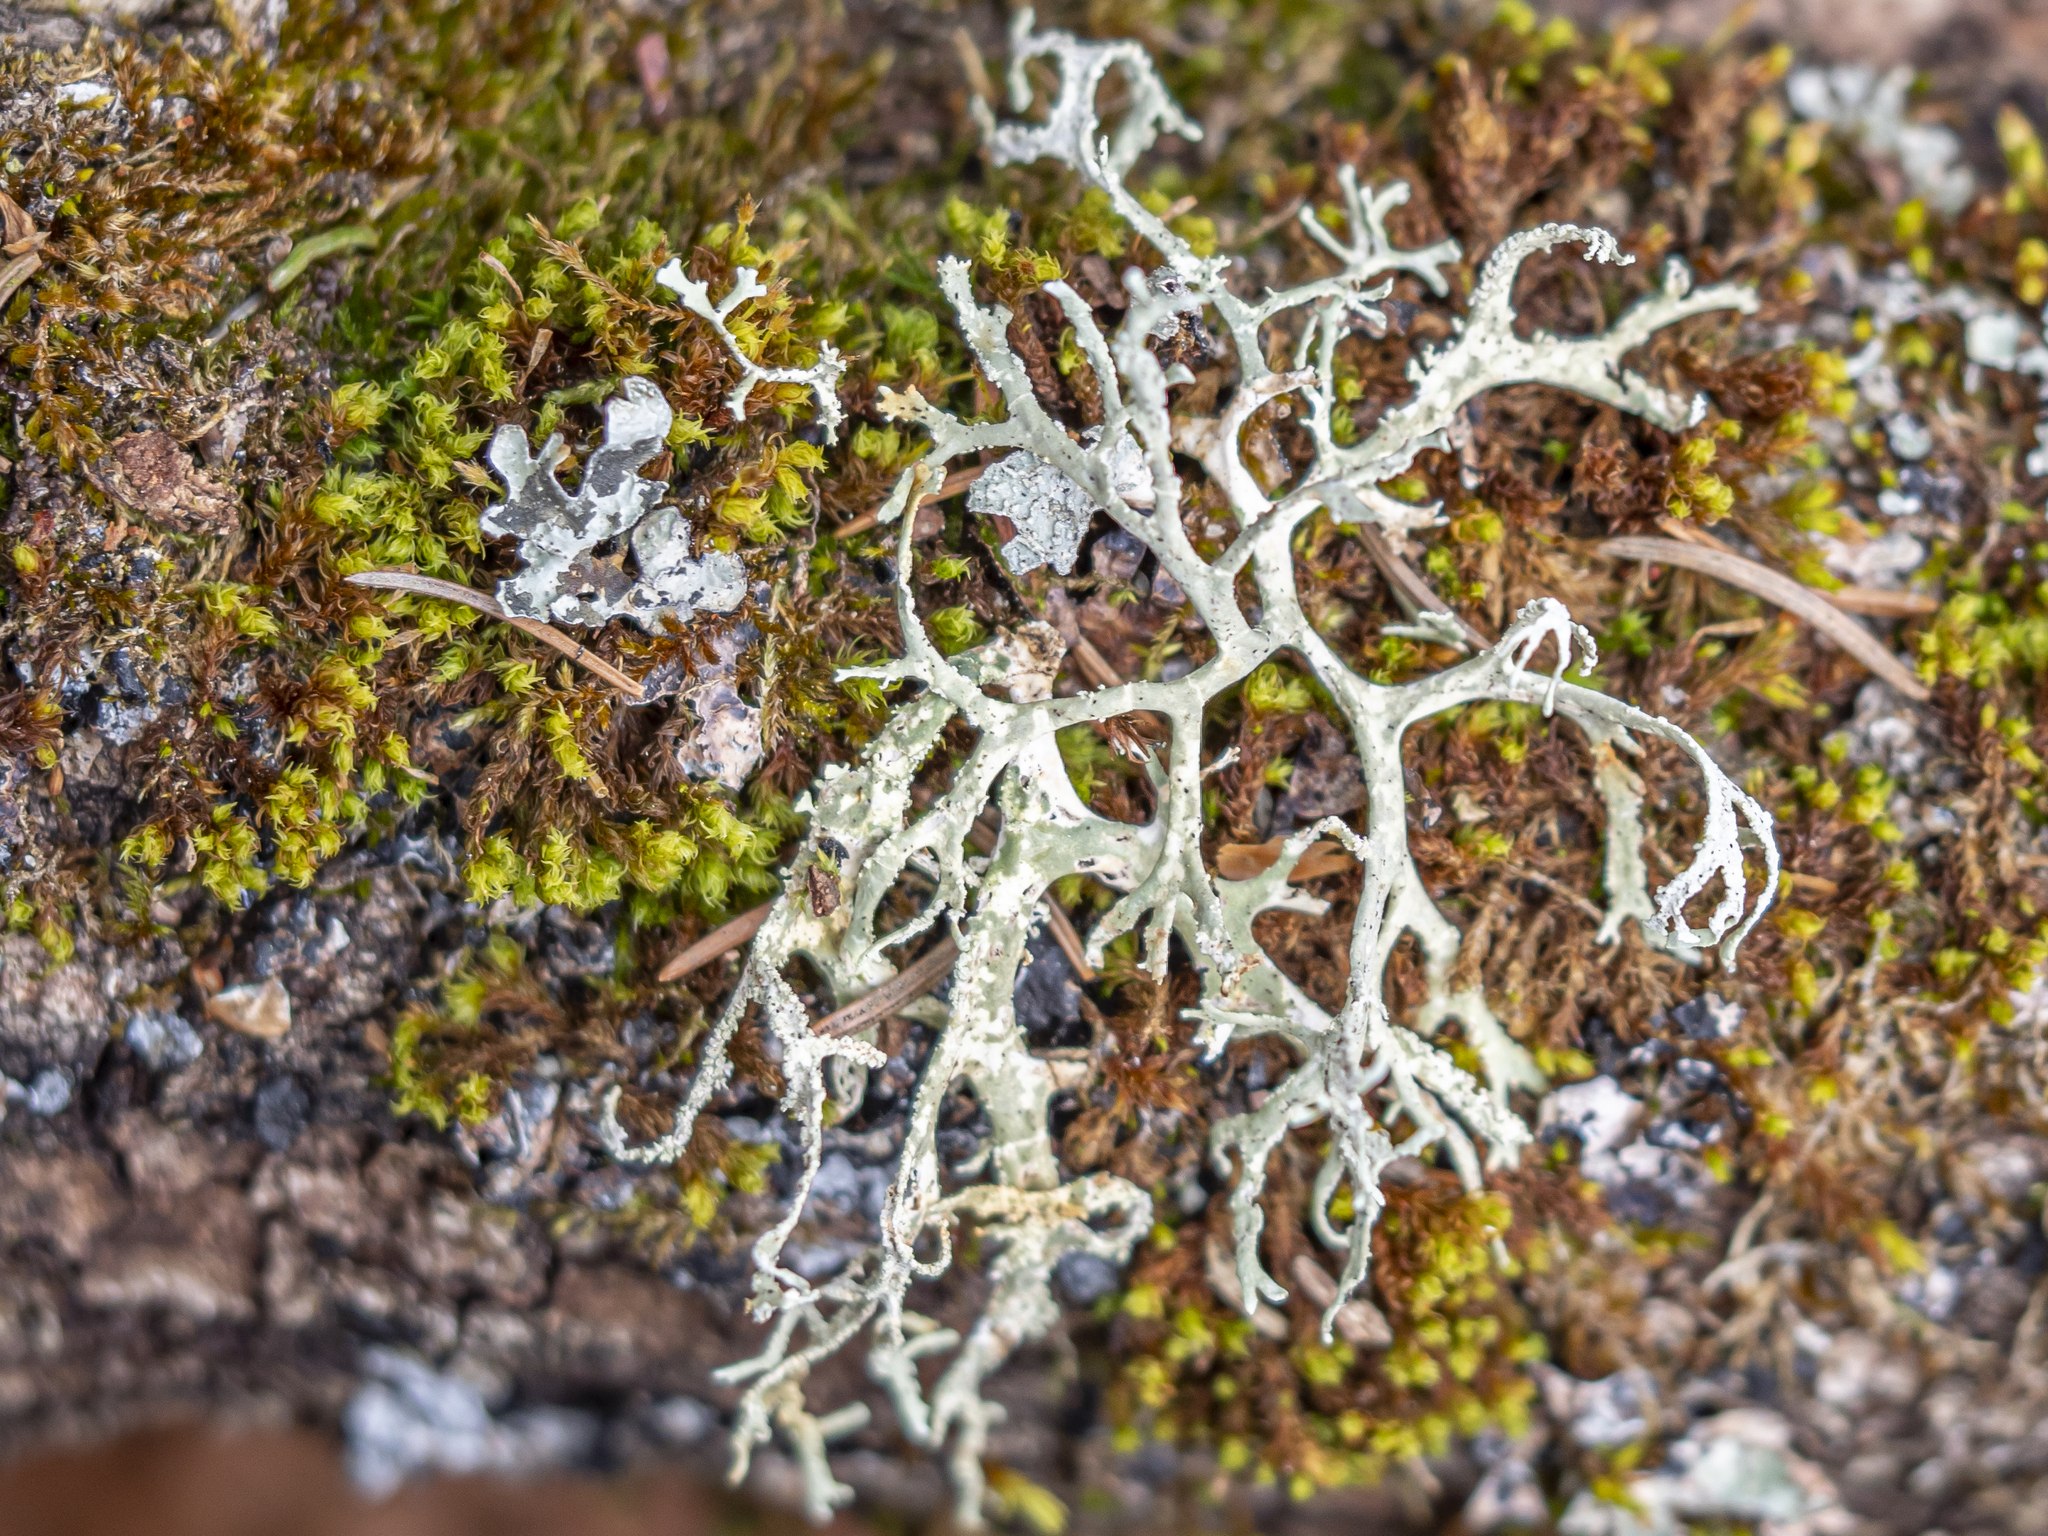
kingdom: Fungi
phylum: Ascomycota
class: Lecanoromycetes
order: Lecanorales
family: Parmeliaceae
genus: Evernia
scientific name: Evernia prunastri
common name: Oak moss
